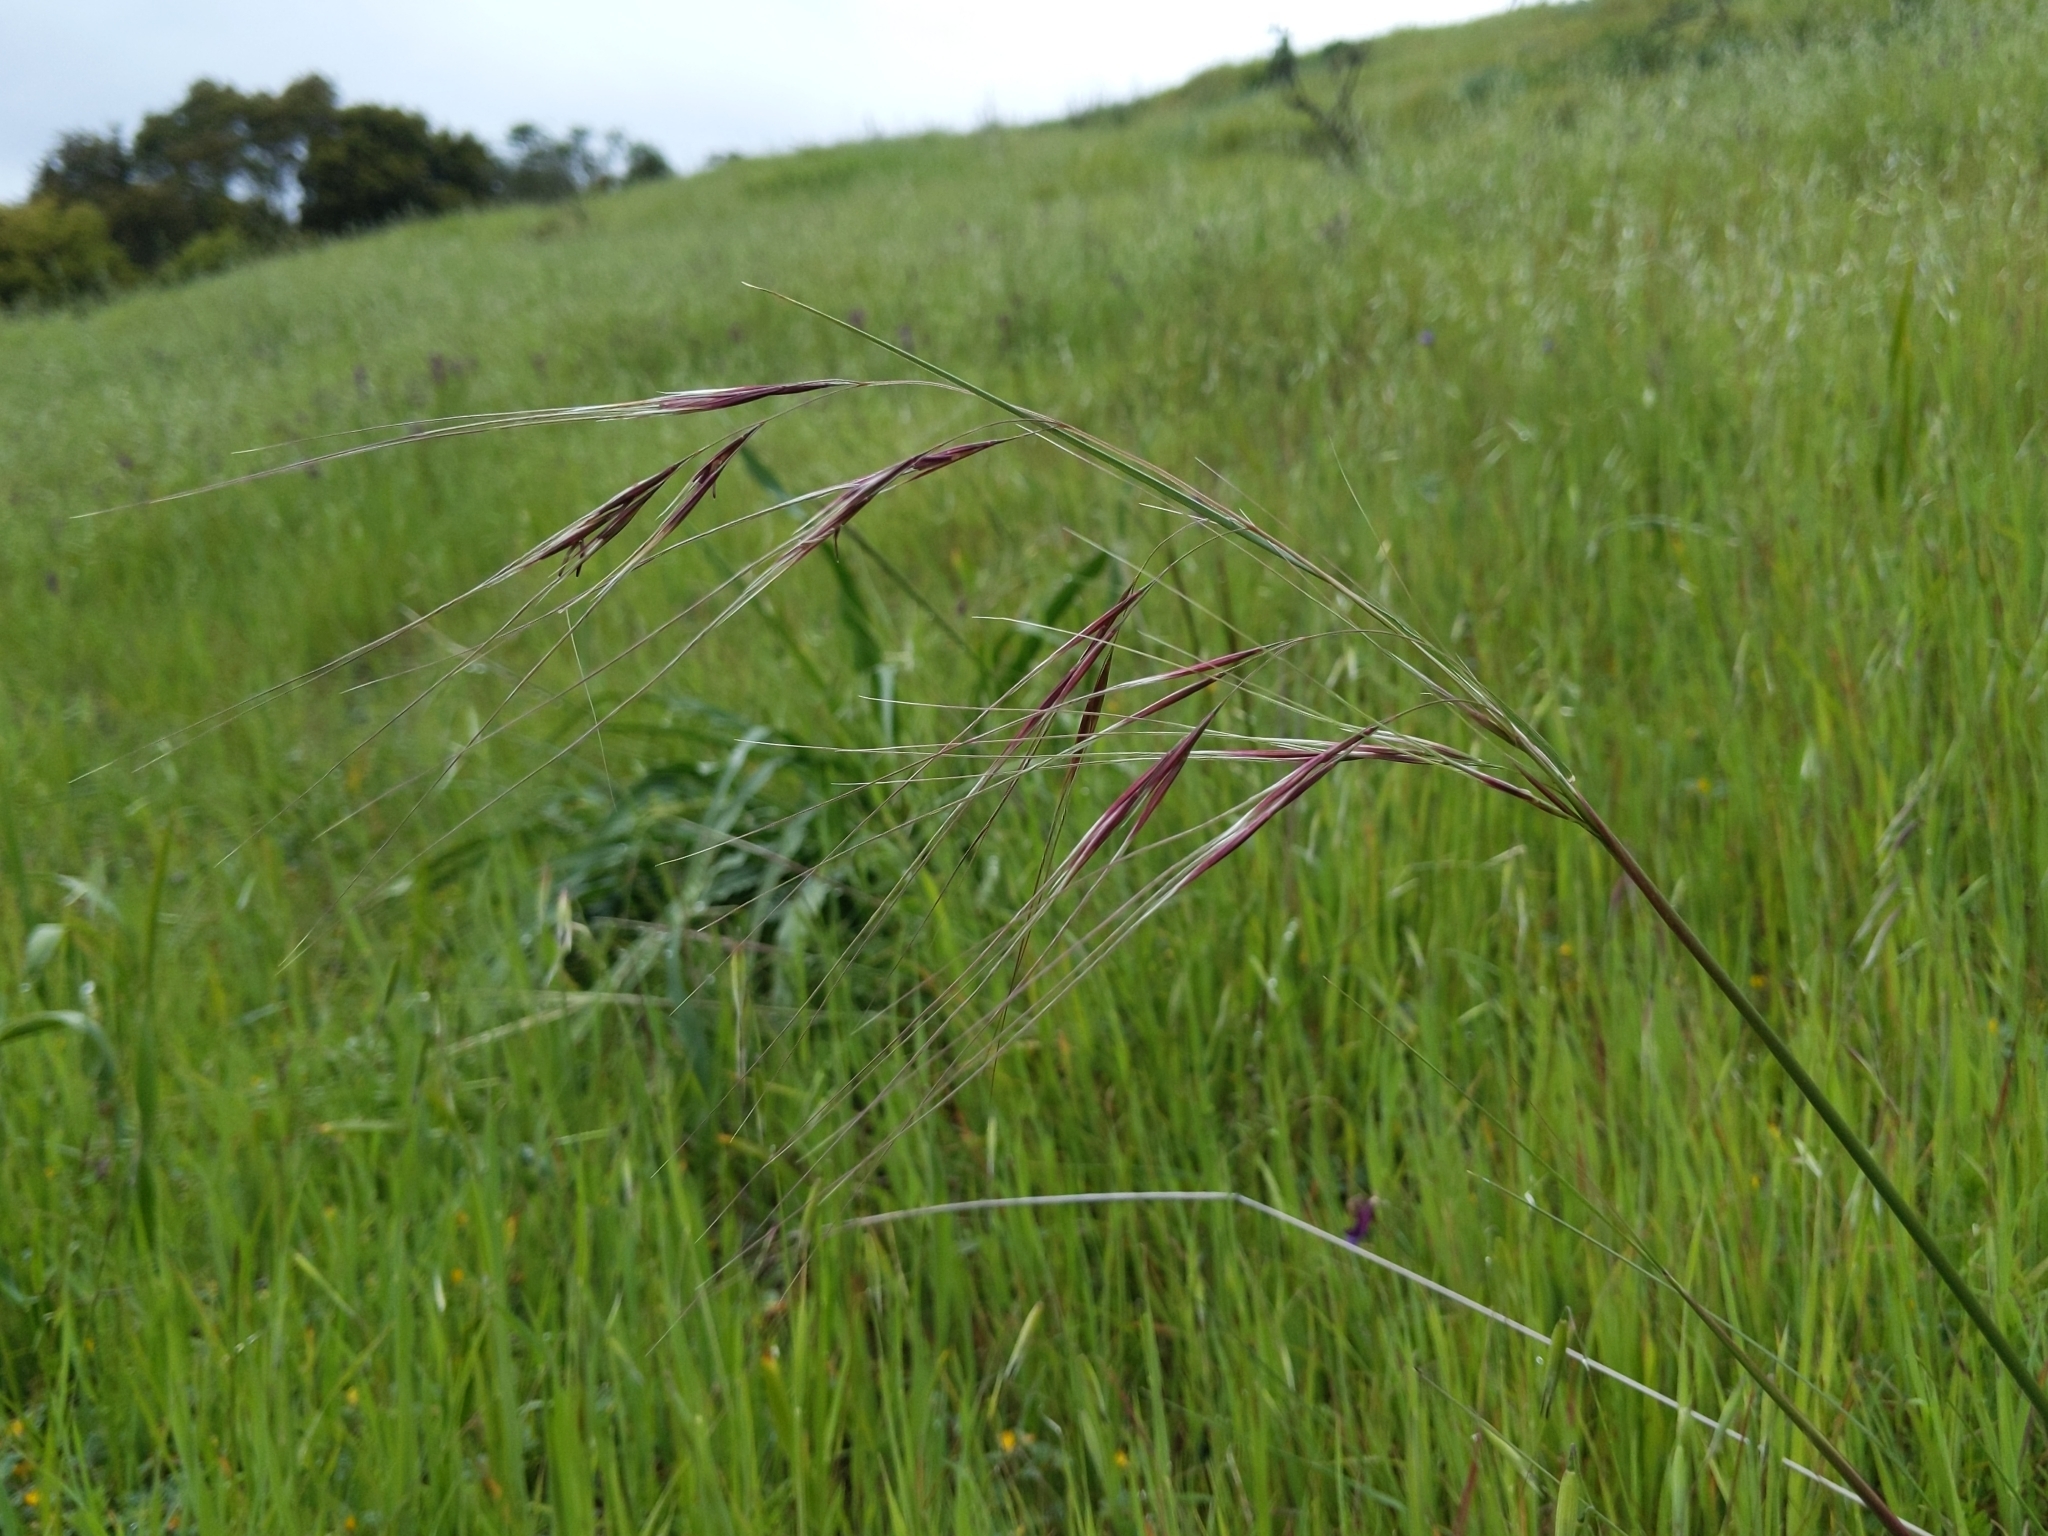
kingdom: Plantae
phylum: Tracheophyta
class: Liliopsida
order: Poales
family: Poaceae
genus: Nassella
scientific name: Nassella pulchra
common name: Purple needlegrass
